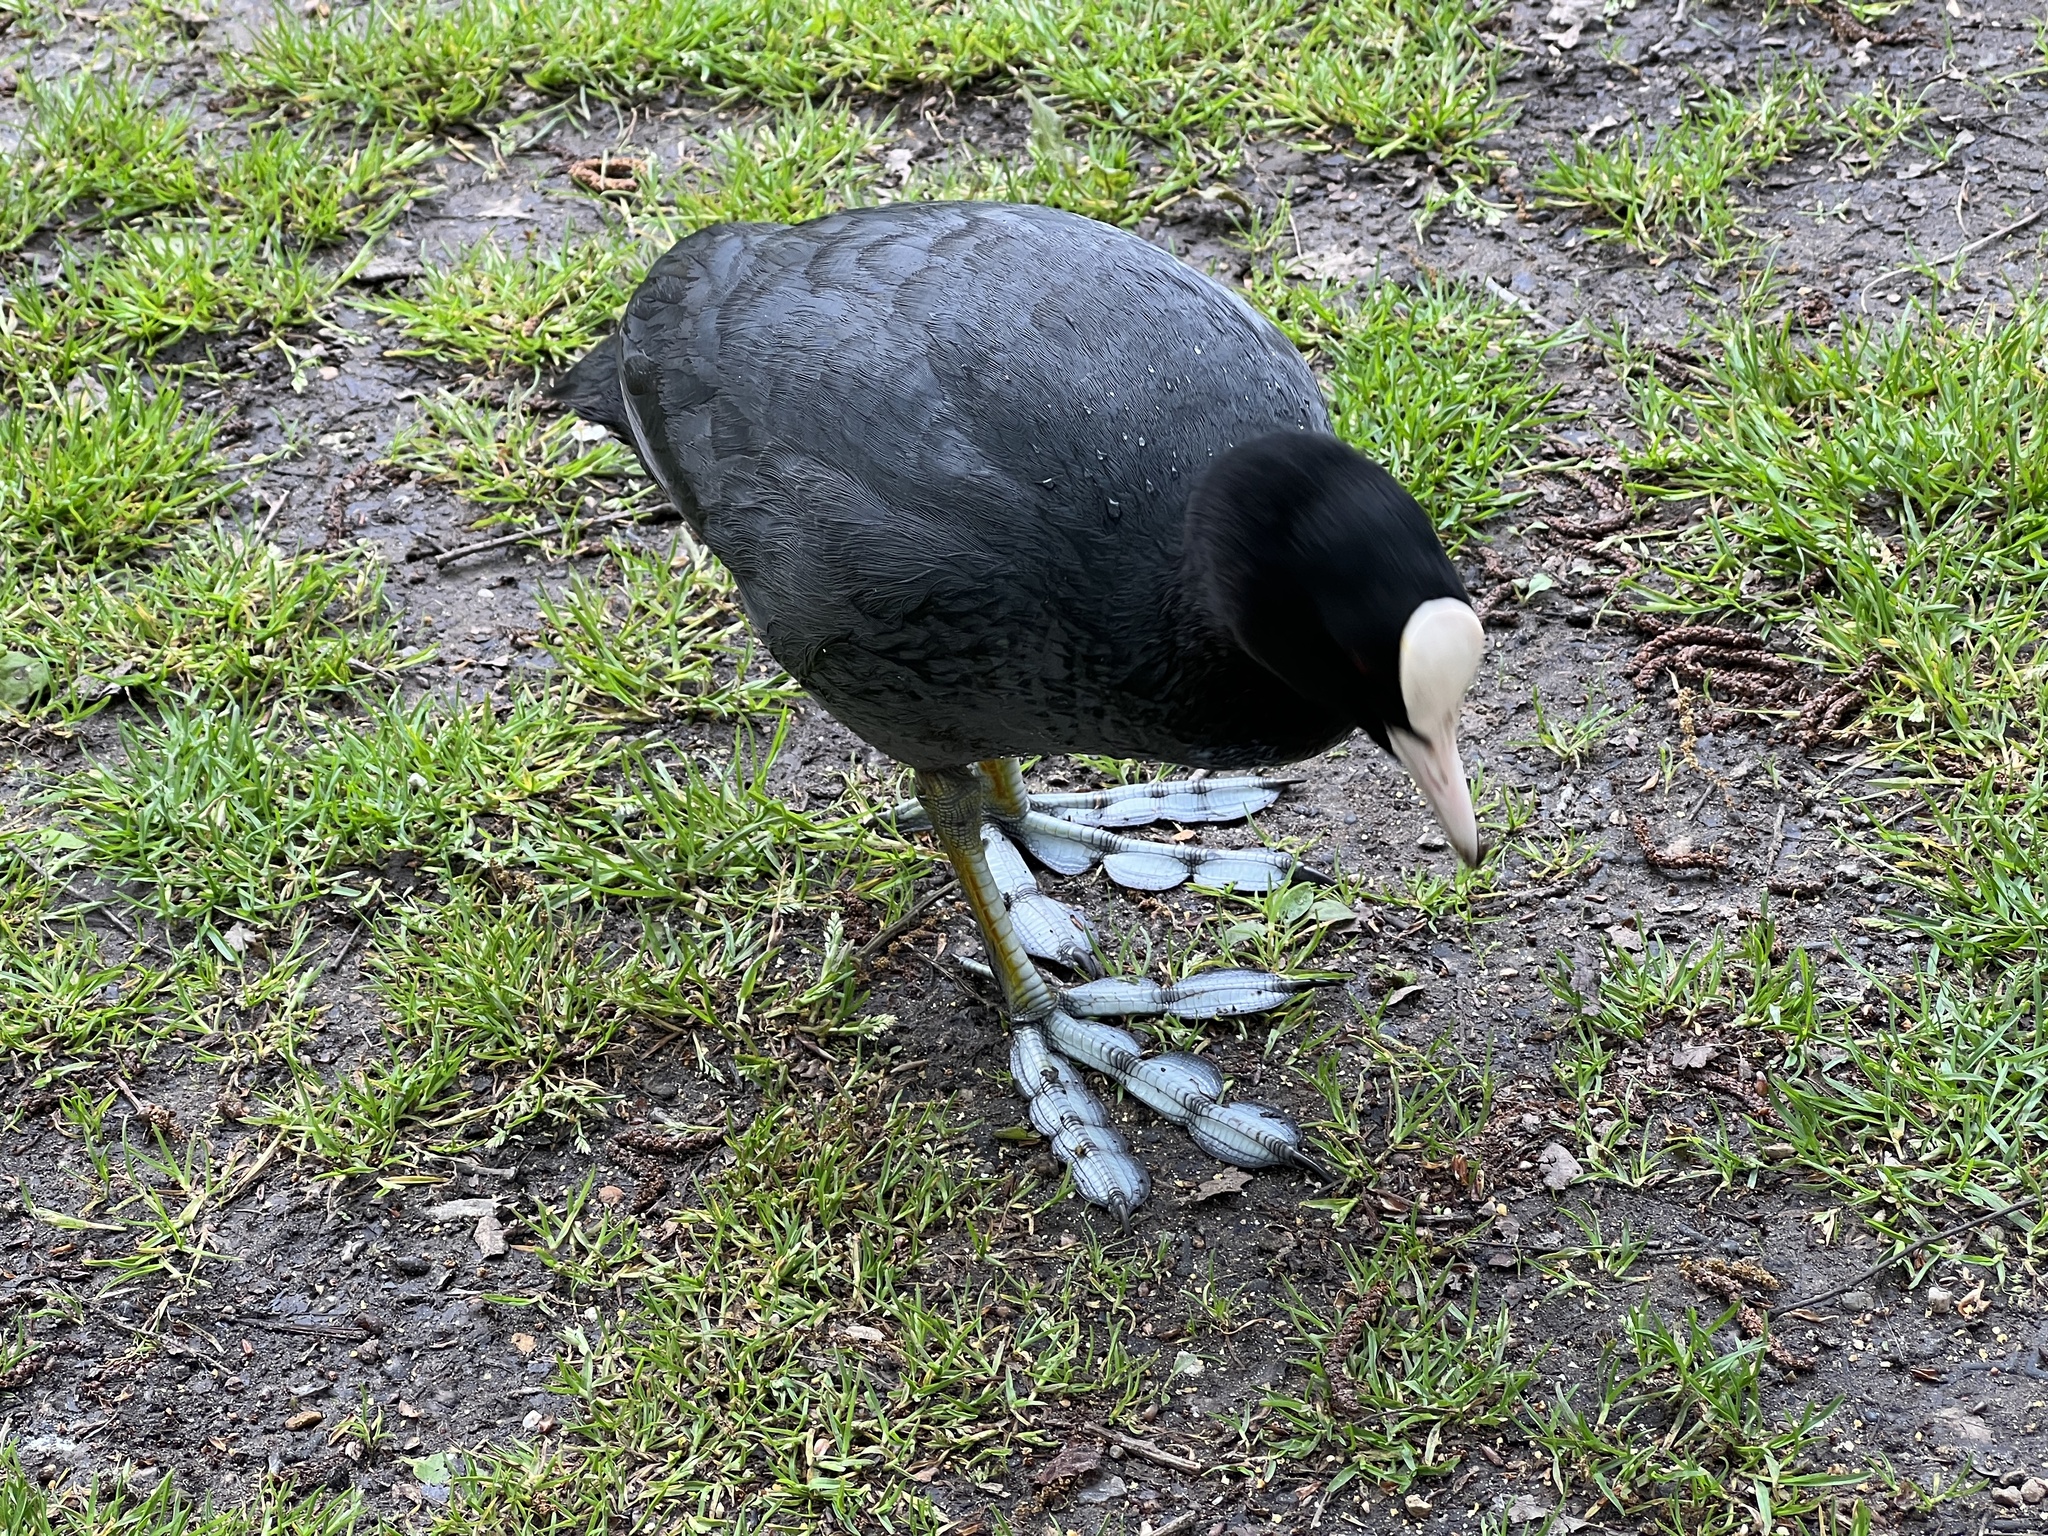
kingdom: Animalia
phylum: Chordata
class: Aves
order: Gruiformes
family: Rallidae
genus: Fulica
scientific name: Fulica atra
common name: Eurasian coot
